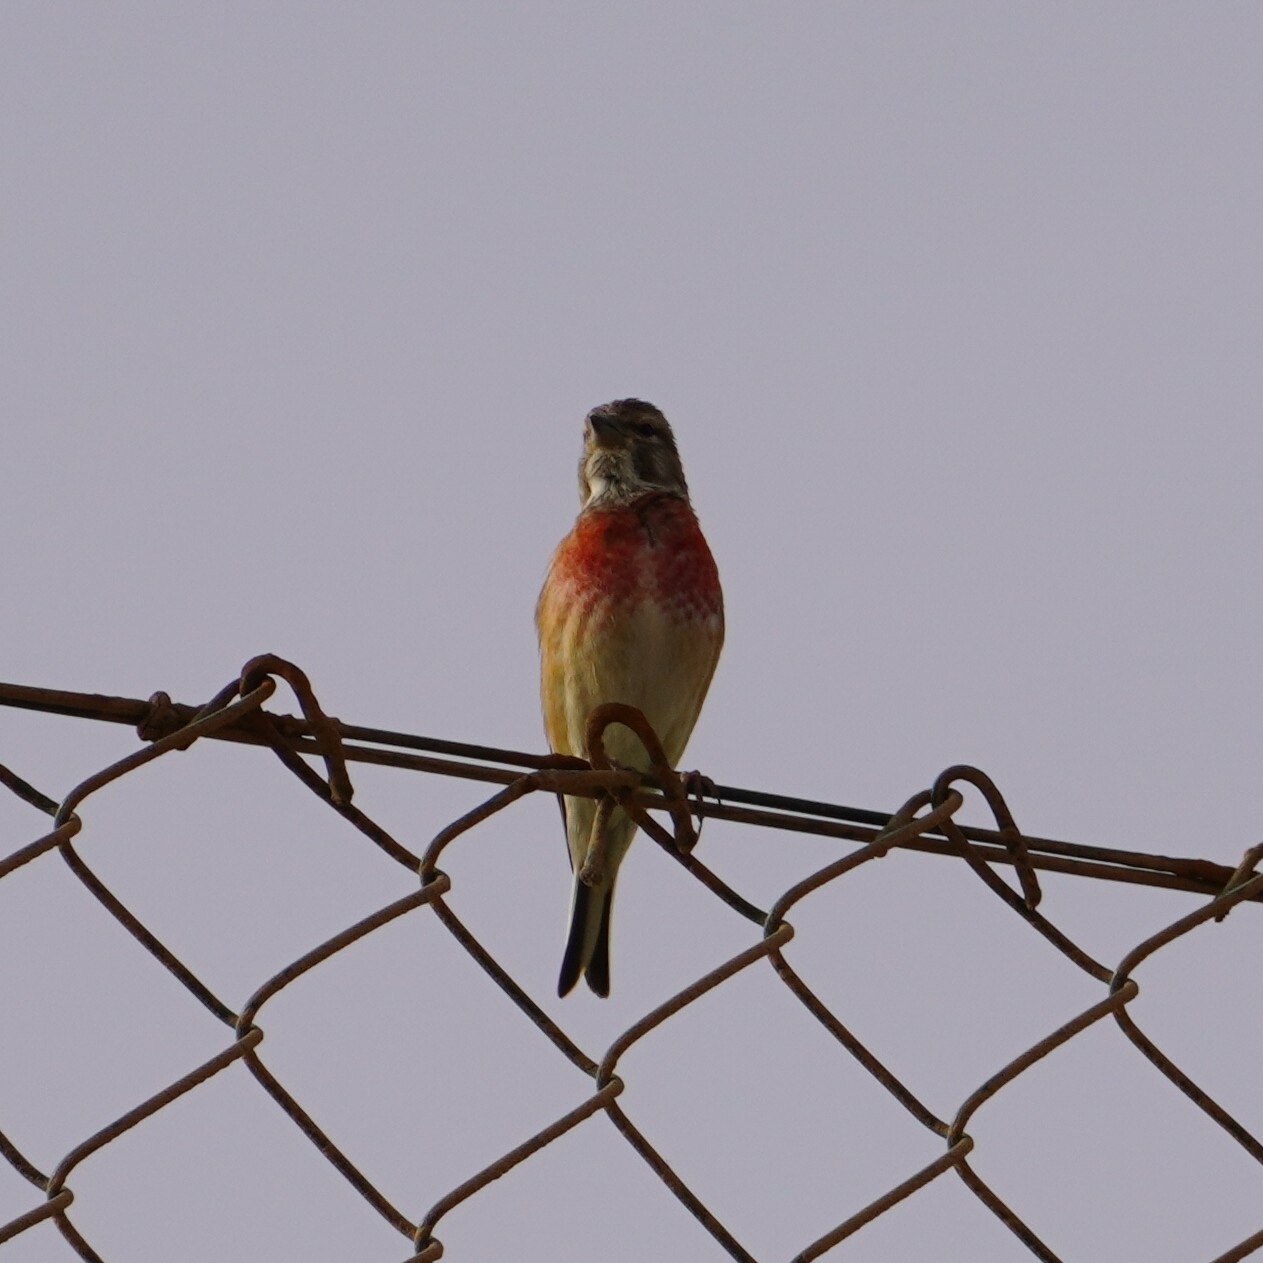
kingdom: Animalia
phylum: Chordata
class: Aves
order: Passeriformes
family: Fringillidae
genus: Linaria
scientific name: Linaria cannabina
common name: Common linnet
